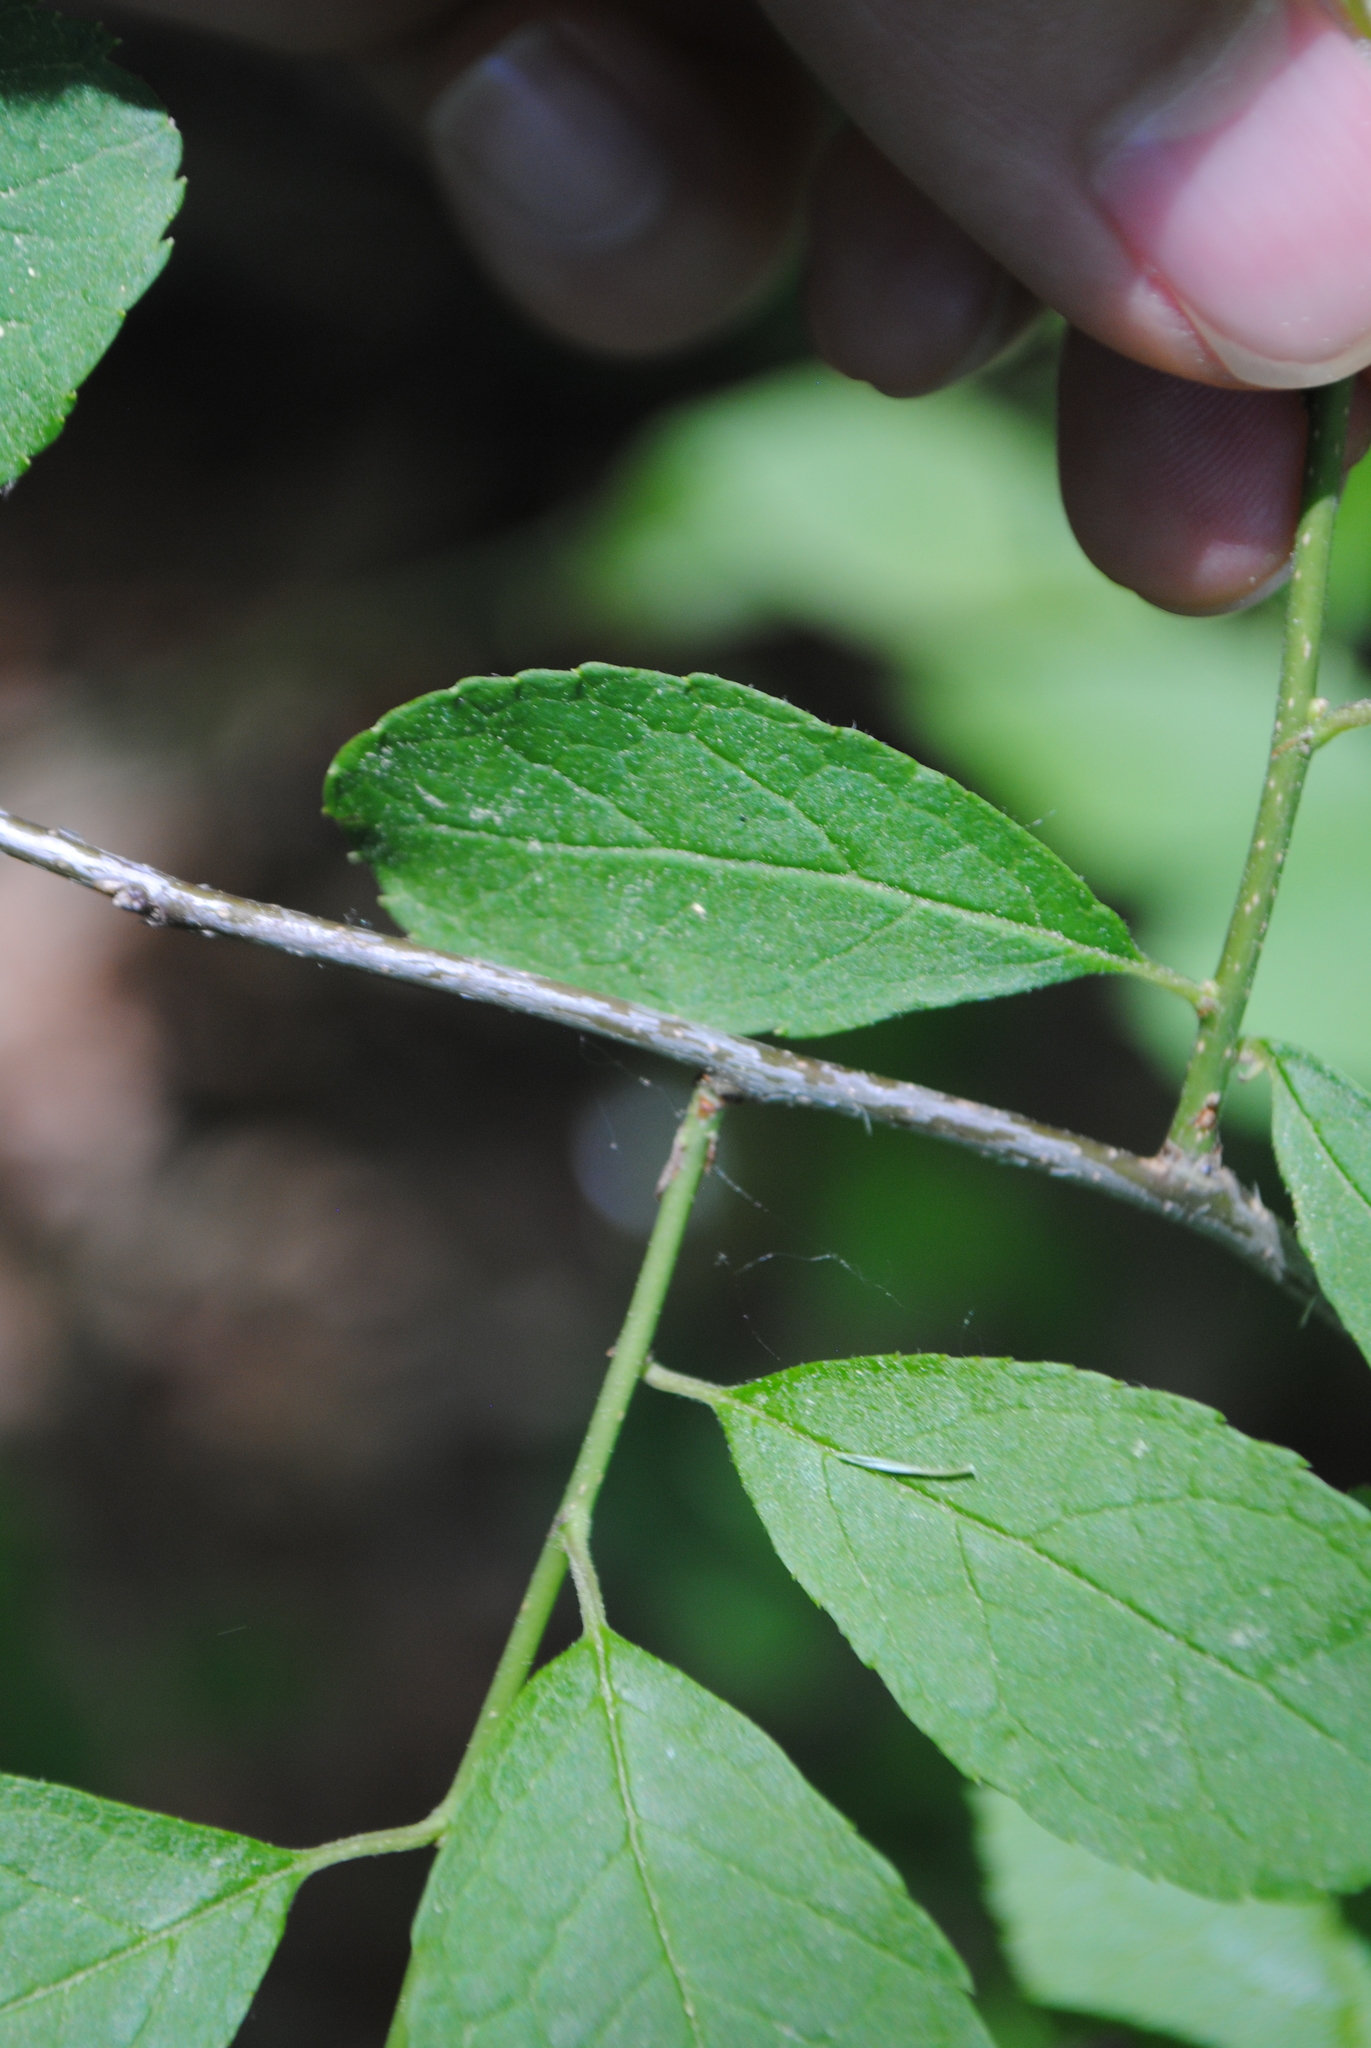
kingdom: Plantae
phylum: Tracheophyta
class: Magnoliopsida
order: Aquifoliales
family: Aquifoliaceae
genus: Ilex
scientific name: Ilex verticillata
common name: Virginia winterberry
